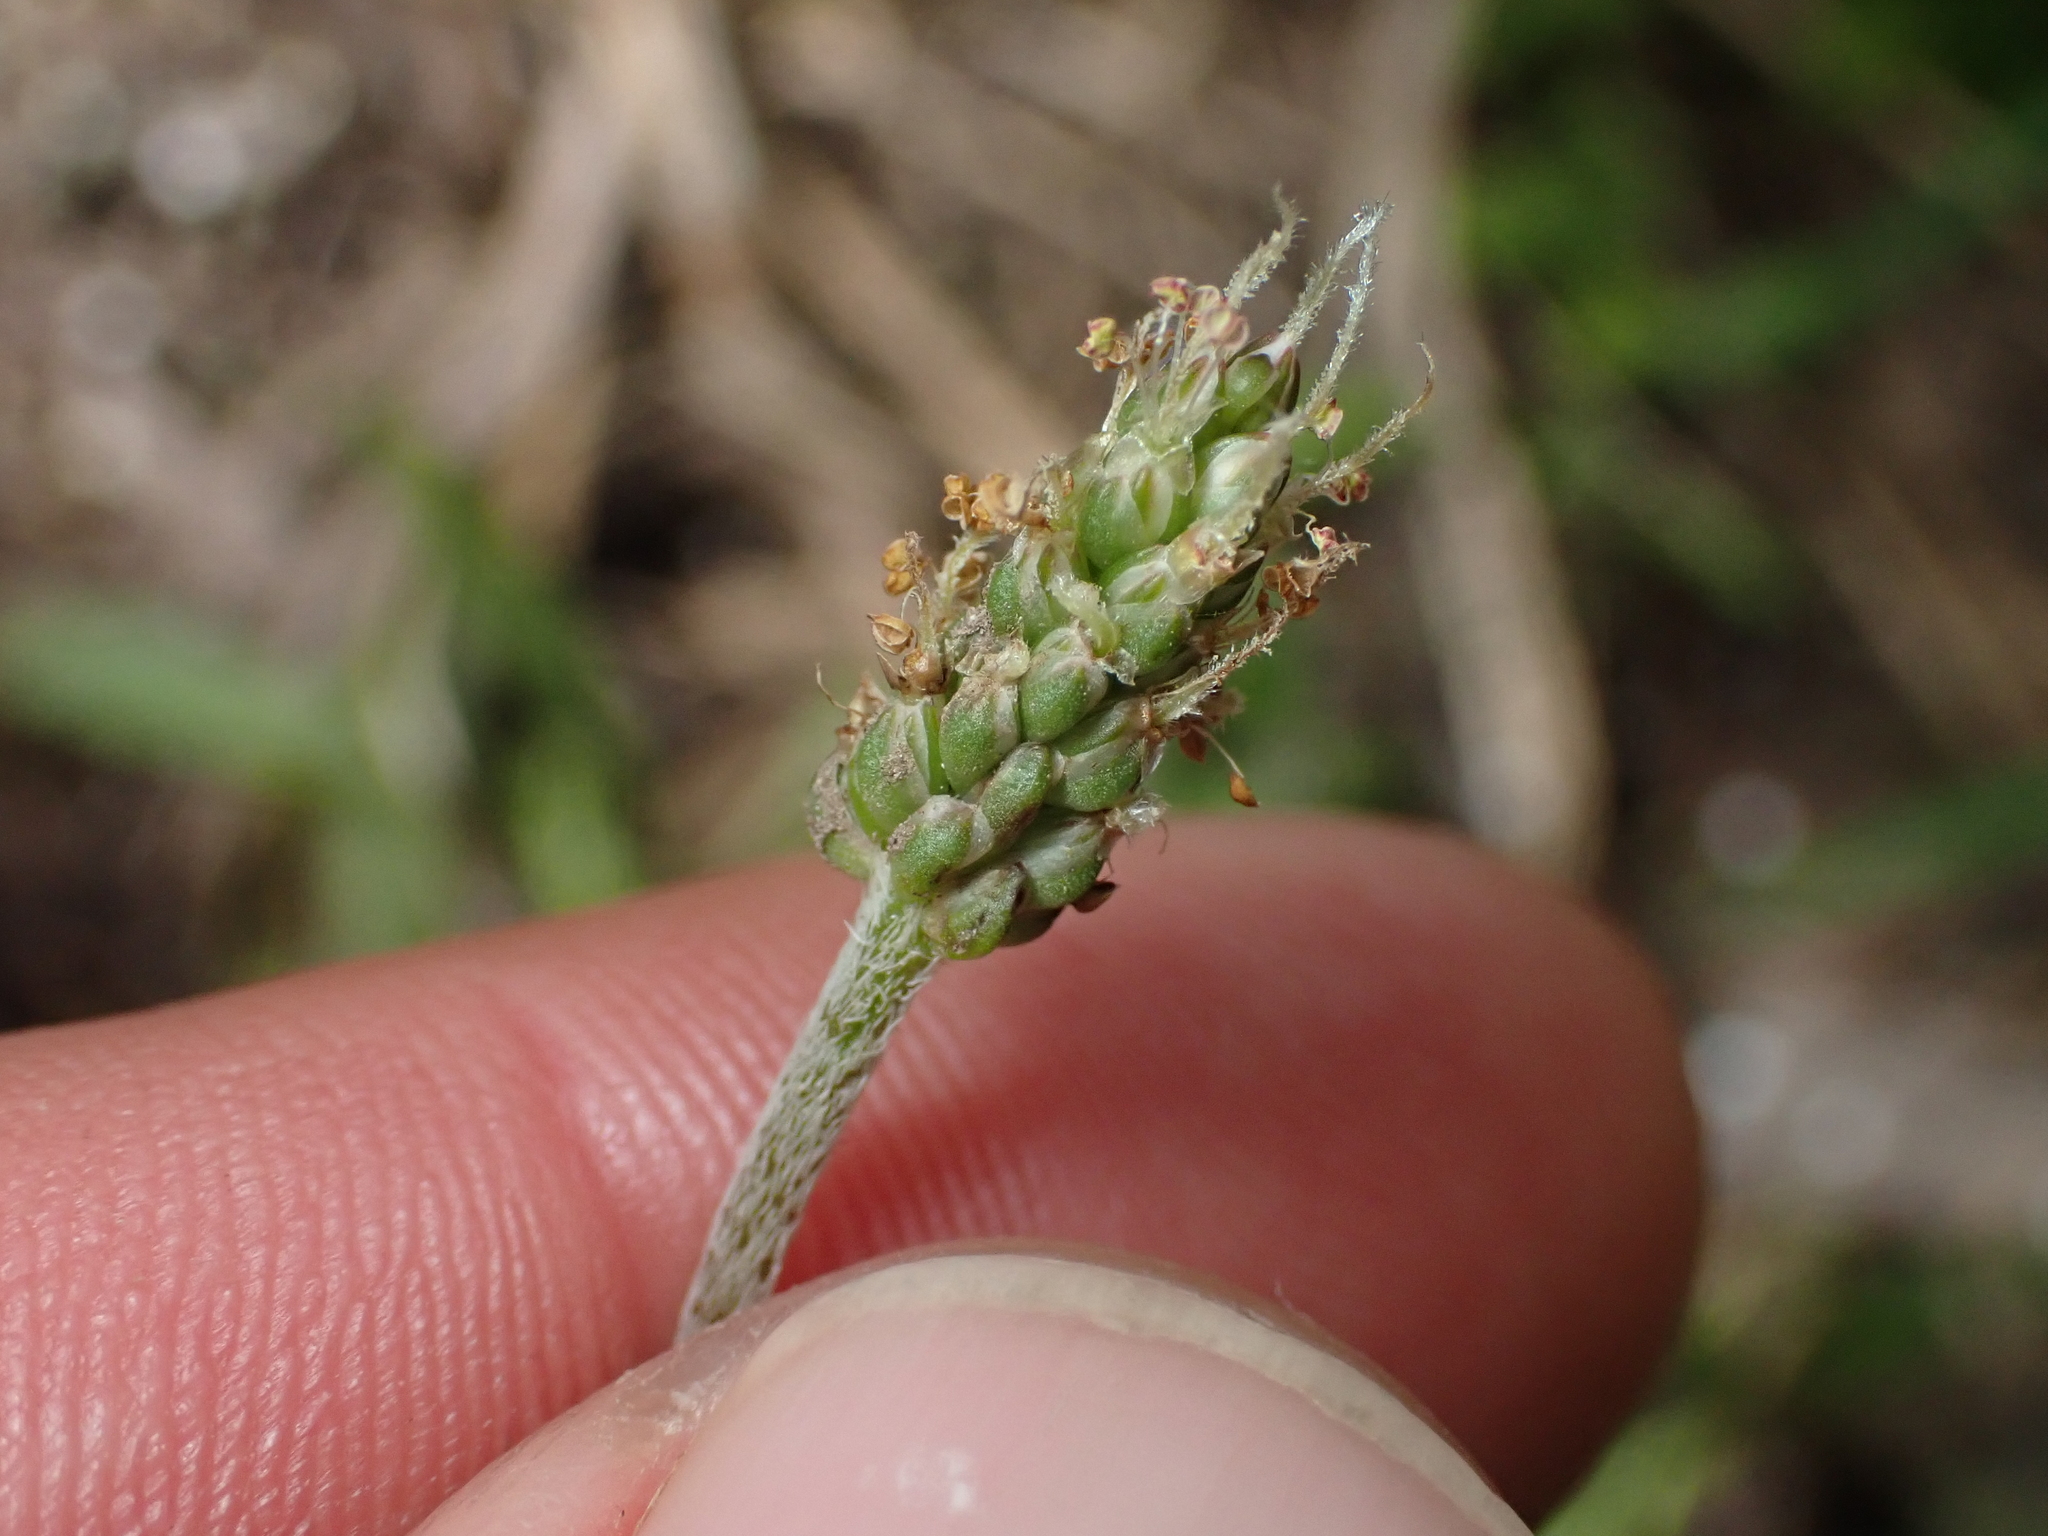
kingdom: Plantae
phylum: Tracheophyta
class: Magnoliopsida
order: Lamiales
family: Plantaginaceae
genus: Plantago
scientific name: Plantago raoulii
